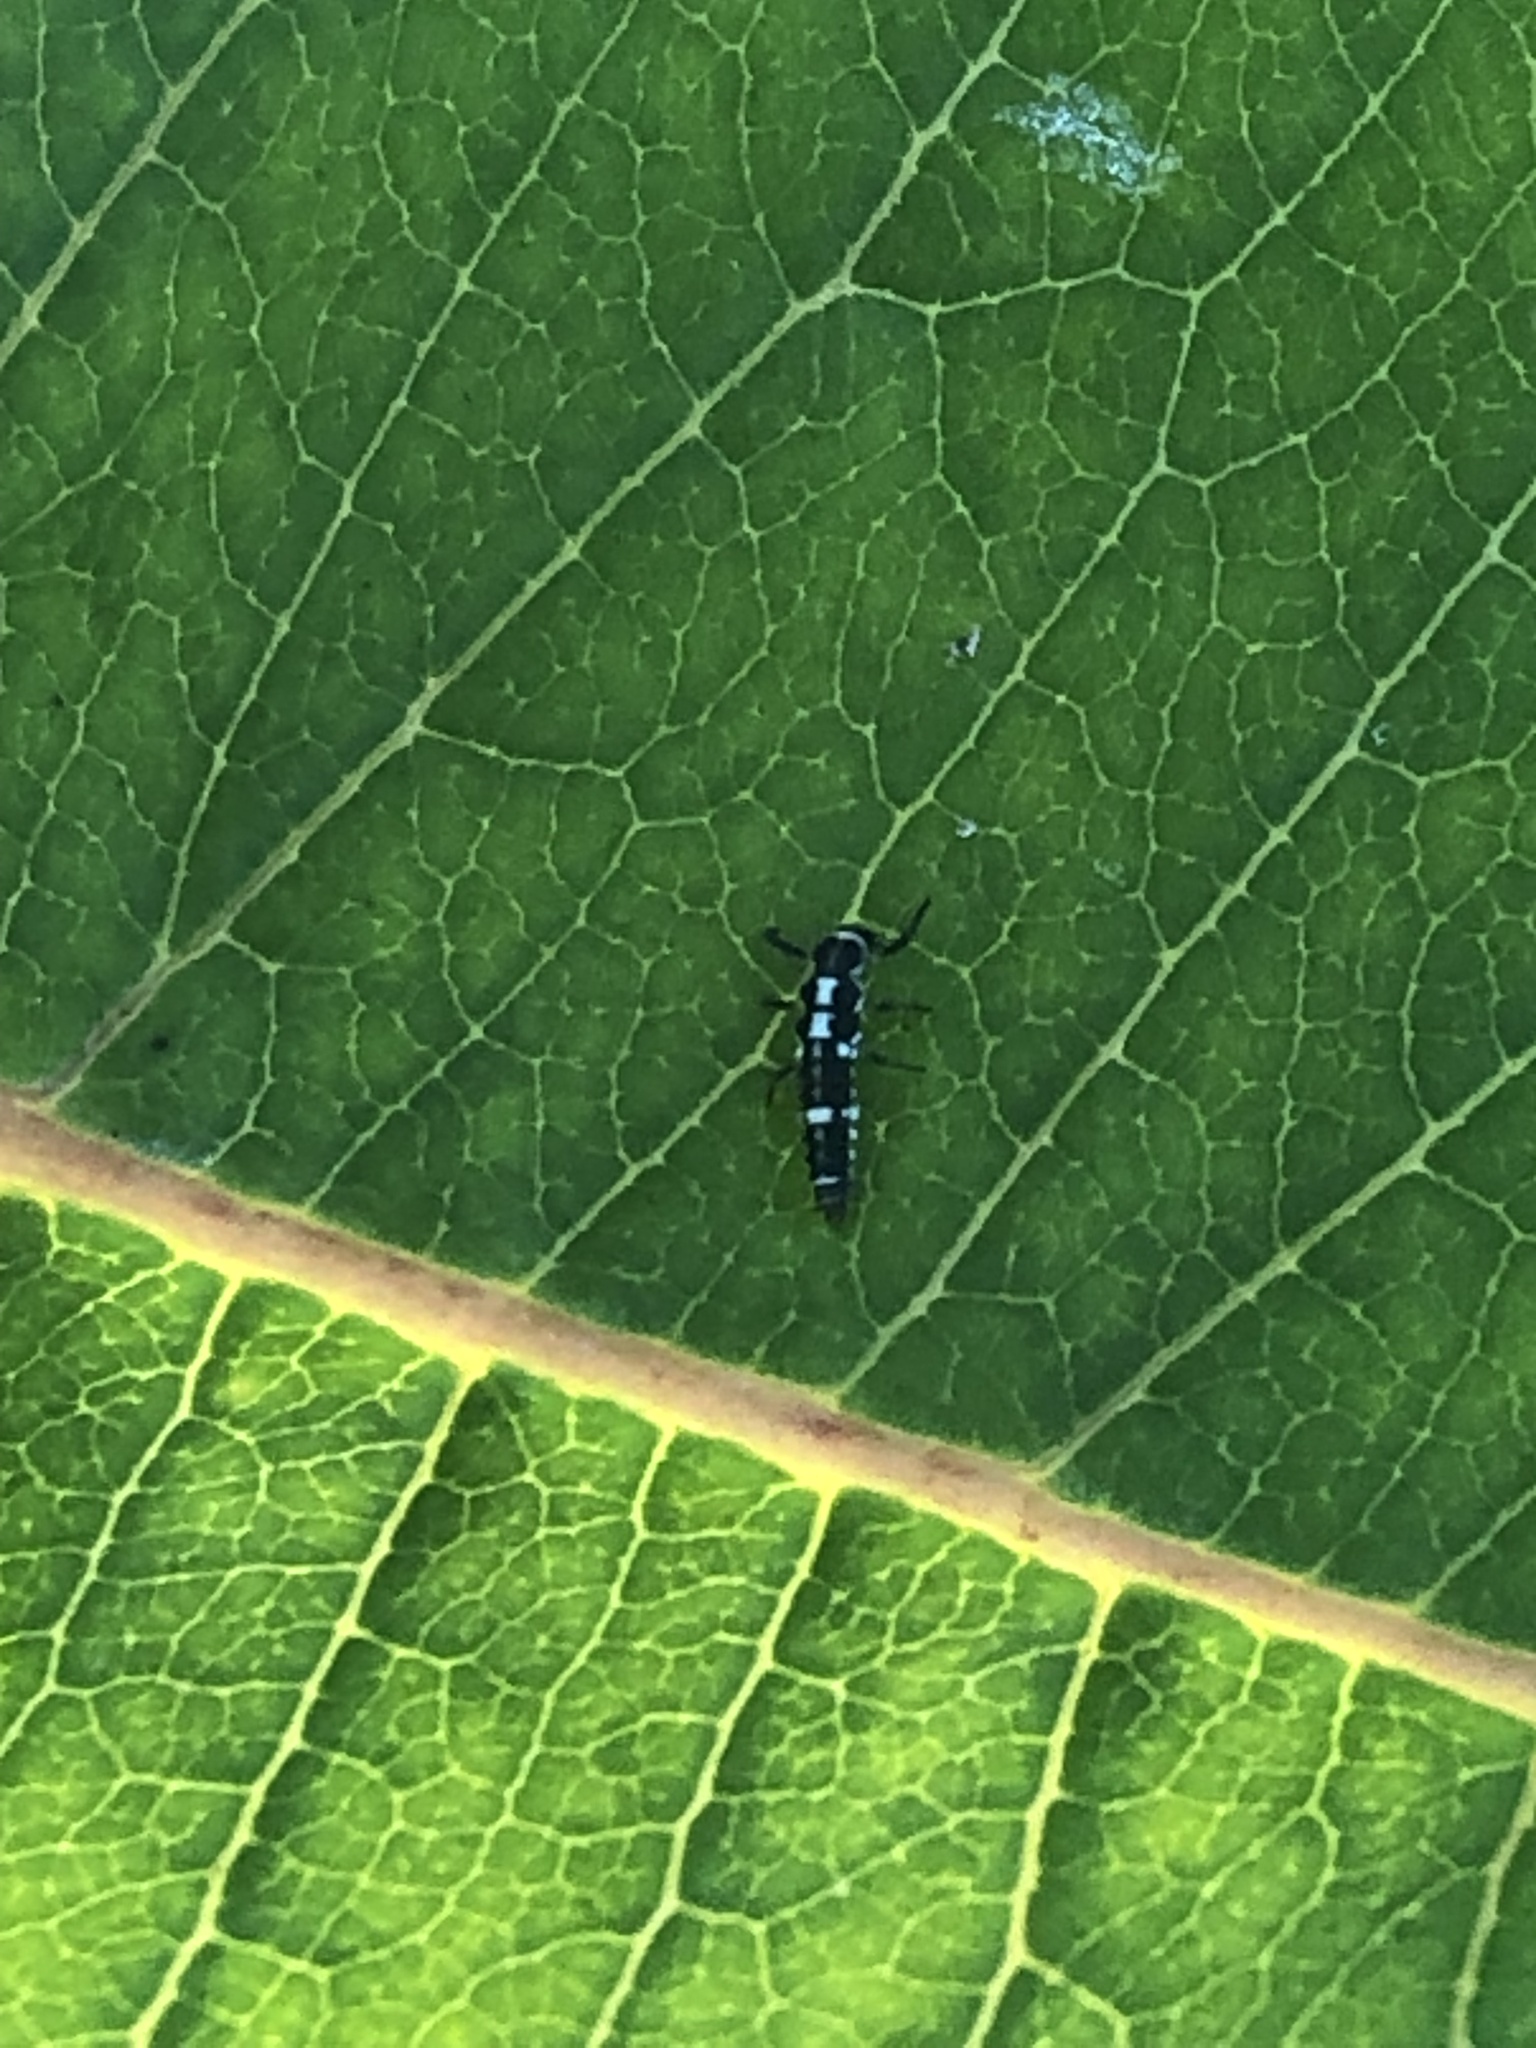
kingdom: Animalia
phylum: Arthropoda
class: Insecta
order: Coleoptera
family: Coccinellidae
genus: Propylaea
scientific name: Propylaea quatuordecimpunctata
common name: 14-spotted ladybird beetle
